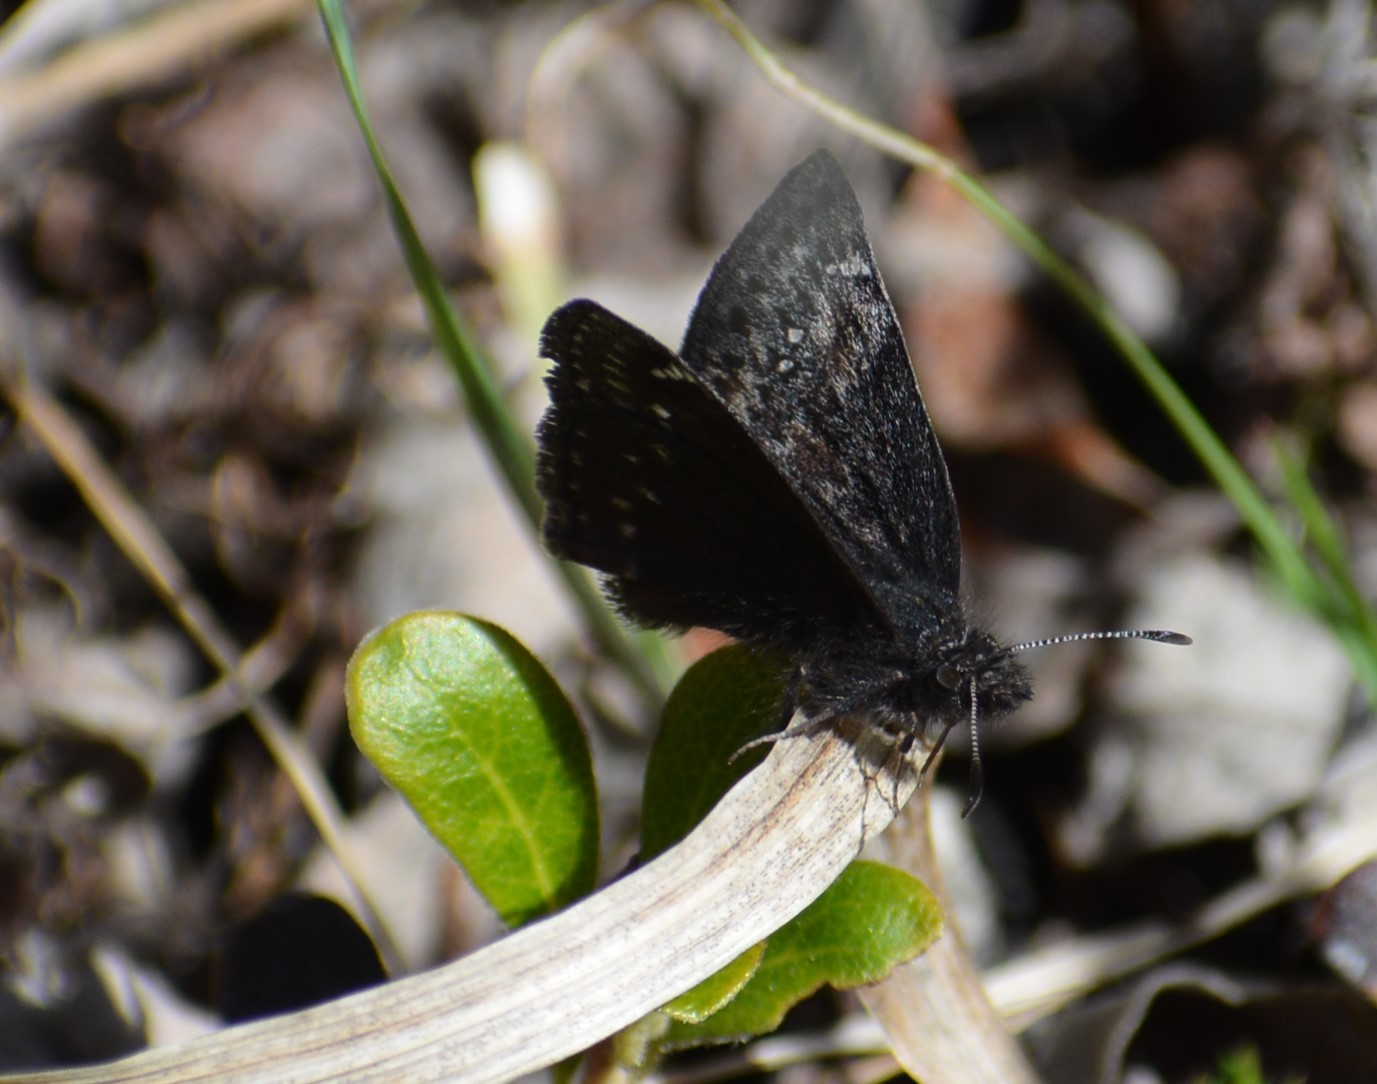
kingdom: Animalia
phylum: Arthropoda
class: Insecta
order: Lepidoptera
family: Hesperiidae
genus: Erynnis
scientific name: Erynnis persius
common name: Persius duskywing
